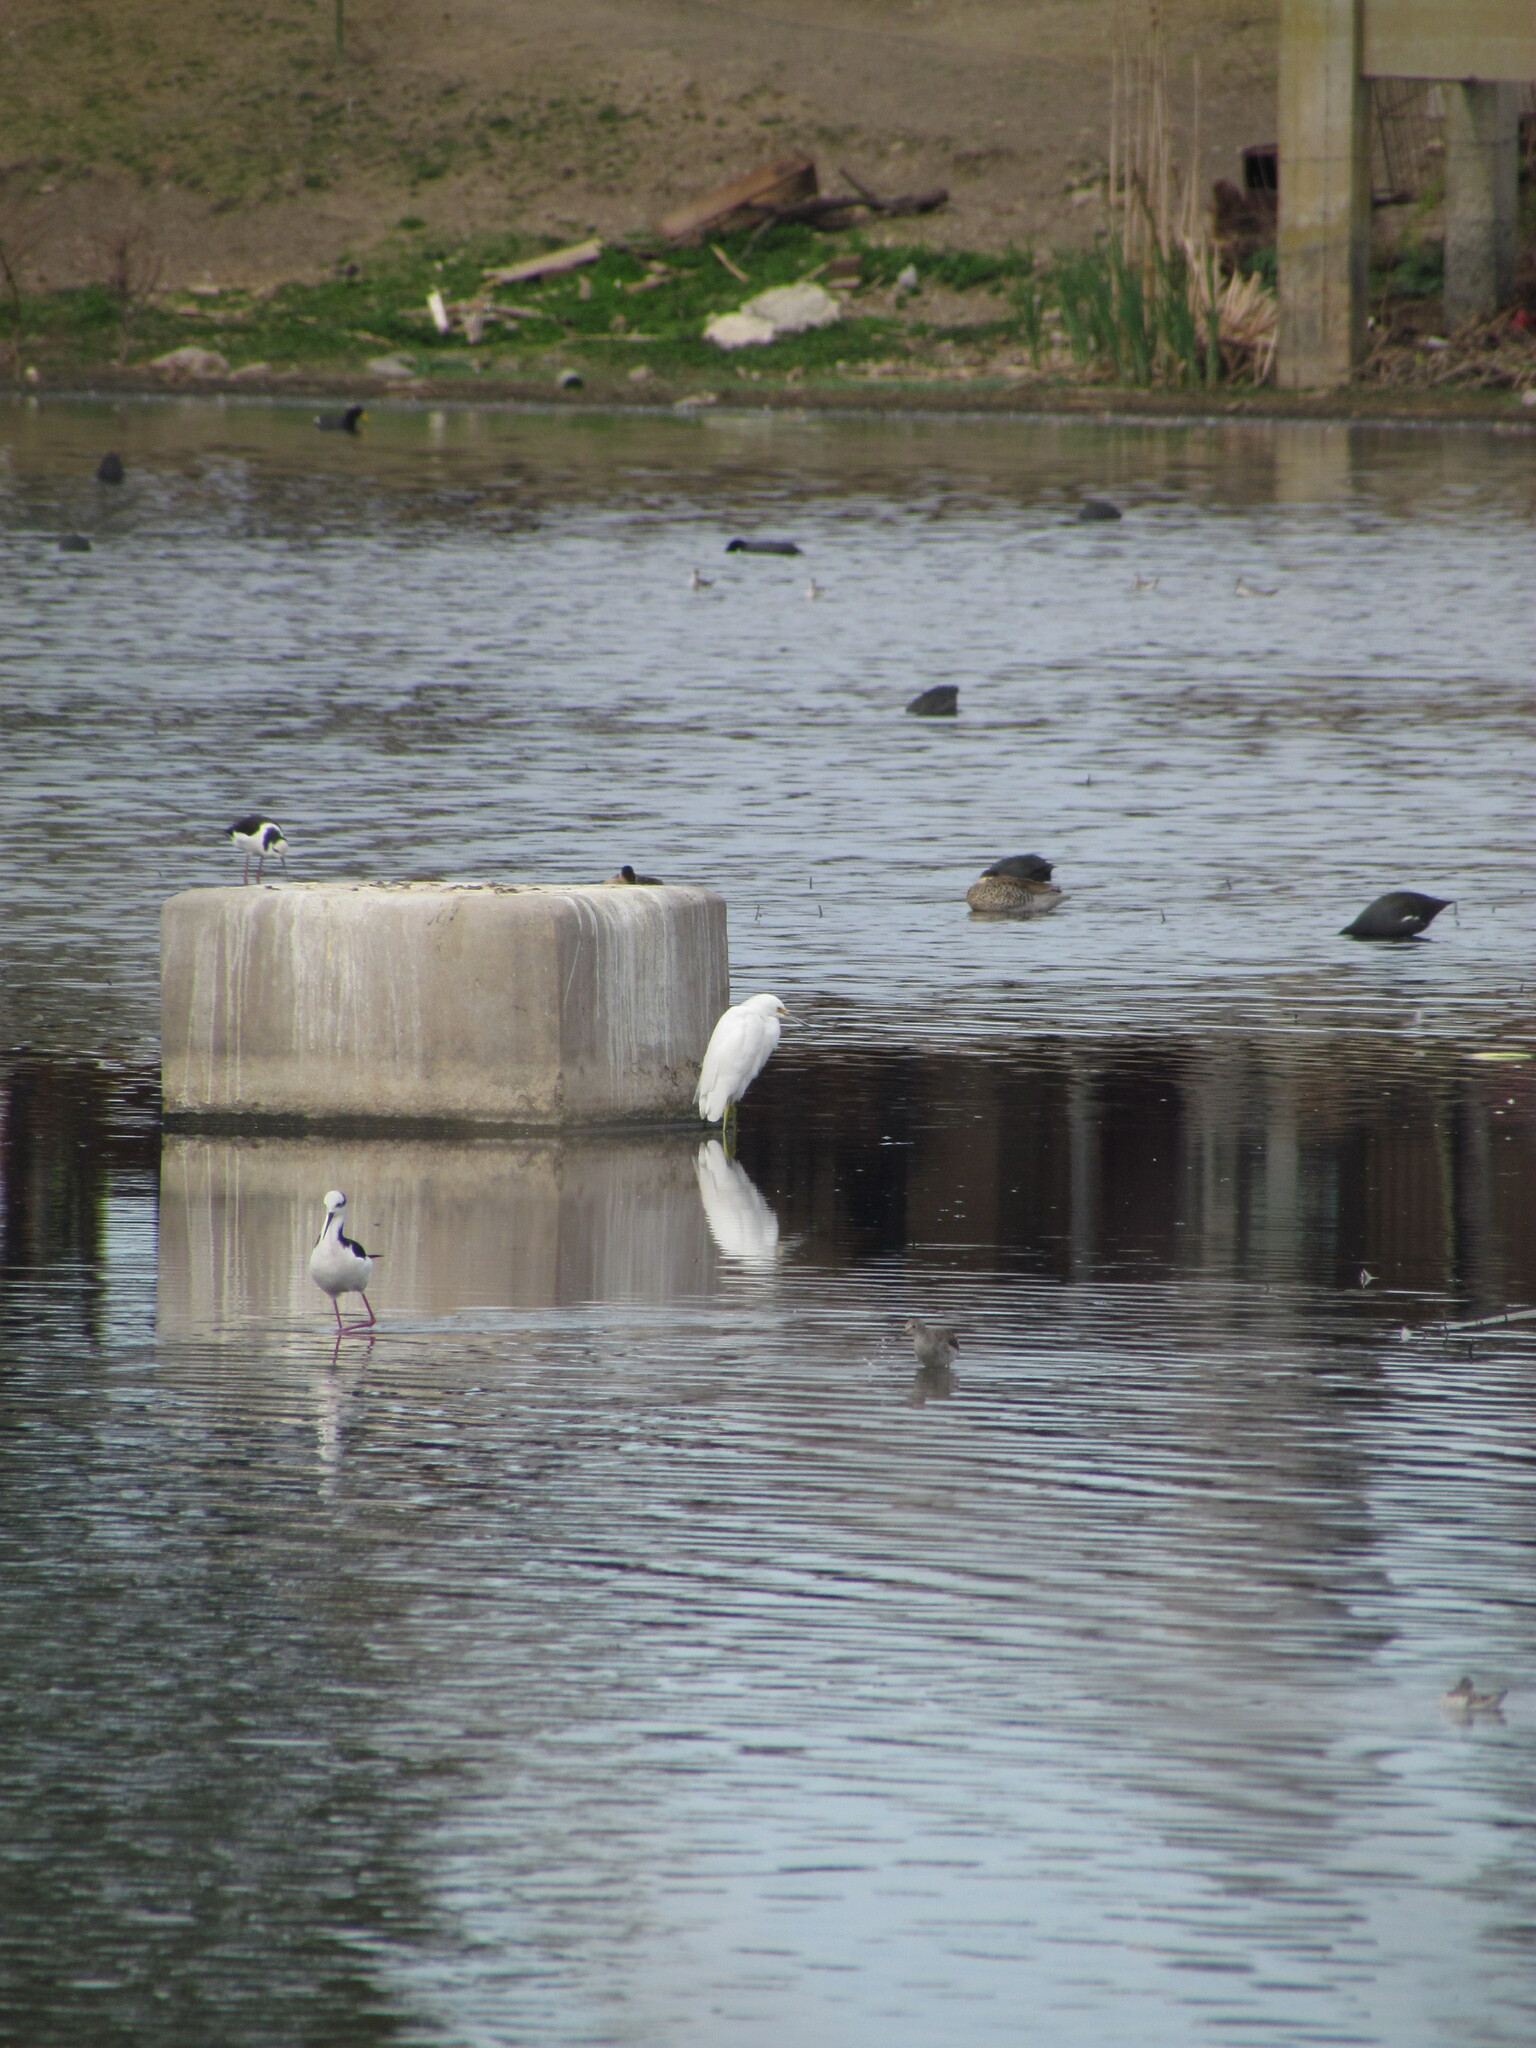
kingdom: Animalia
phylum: Chordata
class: Aves
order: Pelecaniformes
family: Ardeidae
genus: Egretta
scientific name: Egretta thula
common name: Snowy egret
